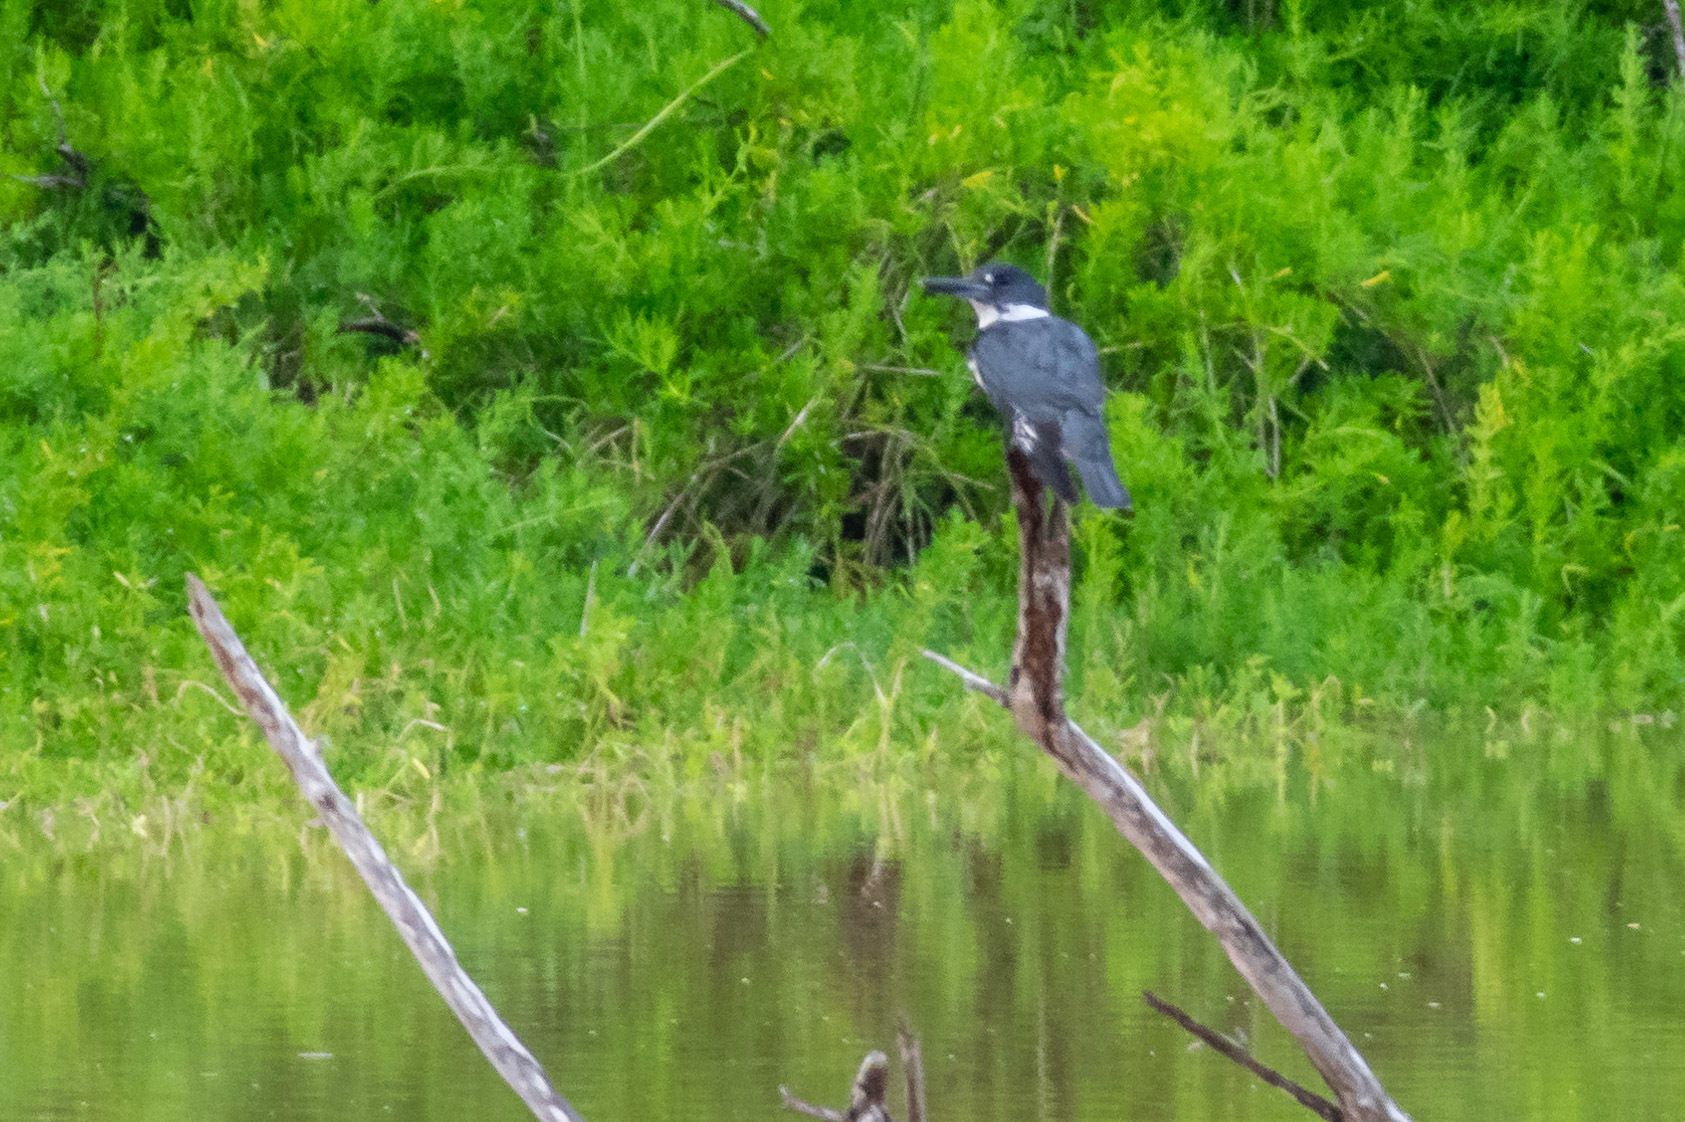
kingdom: Animalia
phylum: Chordata
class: Aves
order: Coraciiformes
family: Alcedinidae
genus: Megaceryle
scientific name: Megaceryle alcyon
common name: Belted kingfisher
